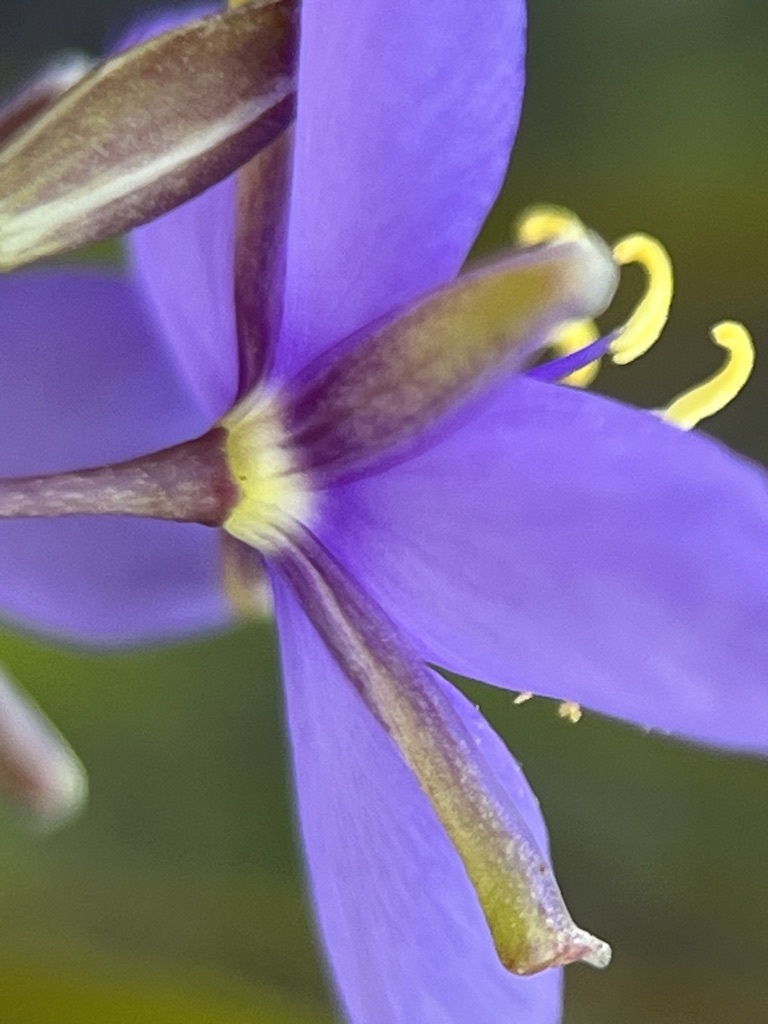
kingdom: Plantae
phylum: Tracheophyta
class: Magnoliopsida
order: Brassicales
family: Brassicaceae
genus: Heliophila
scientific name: Heliophila subulata
